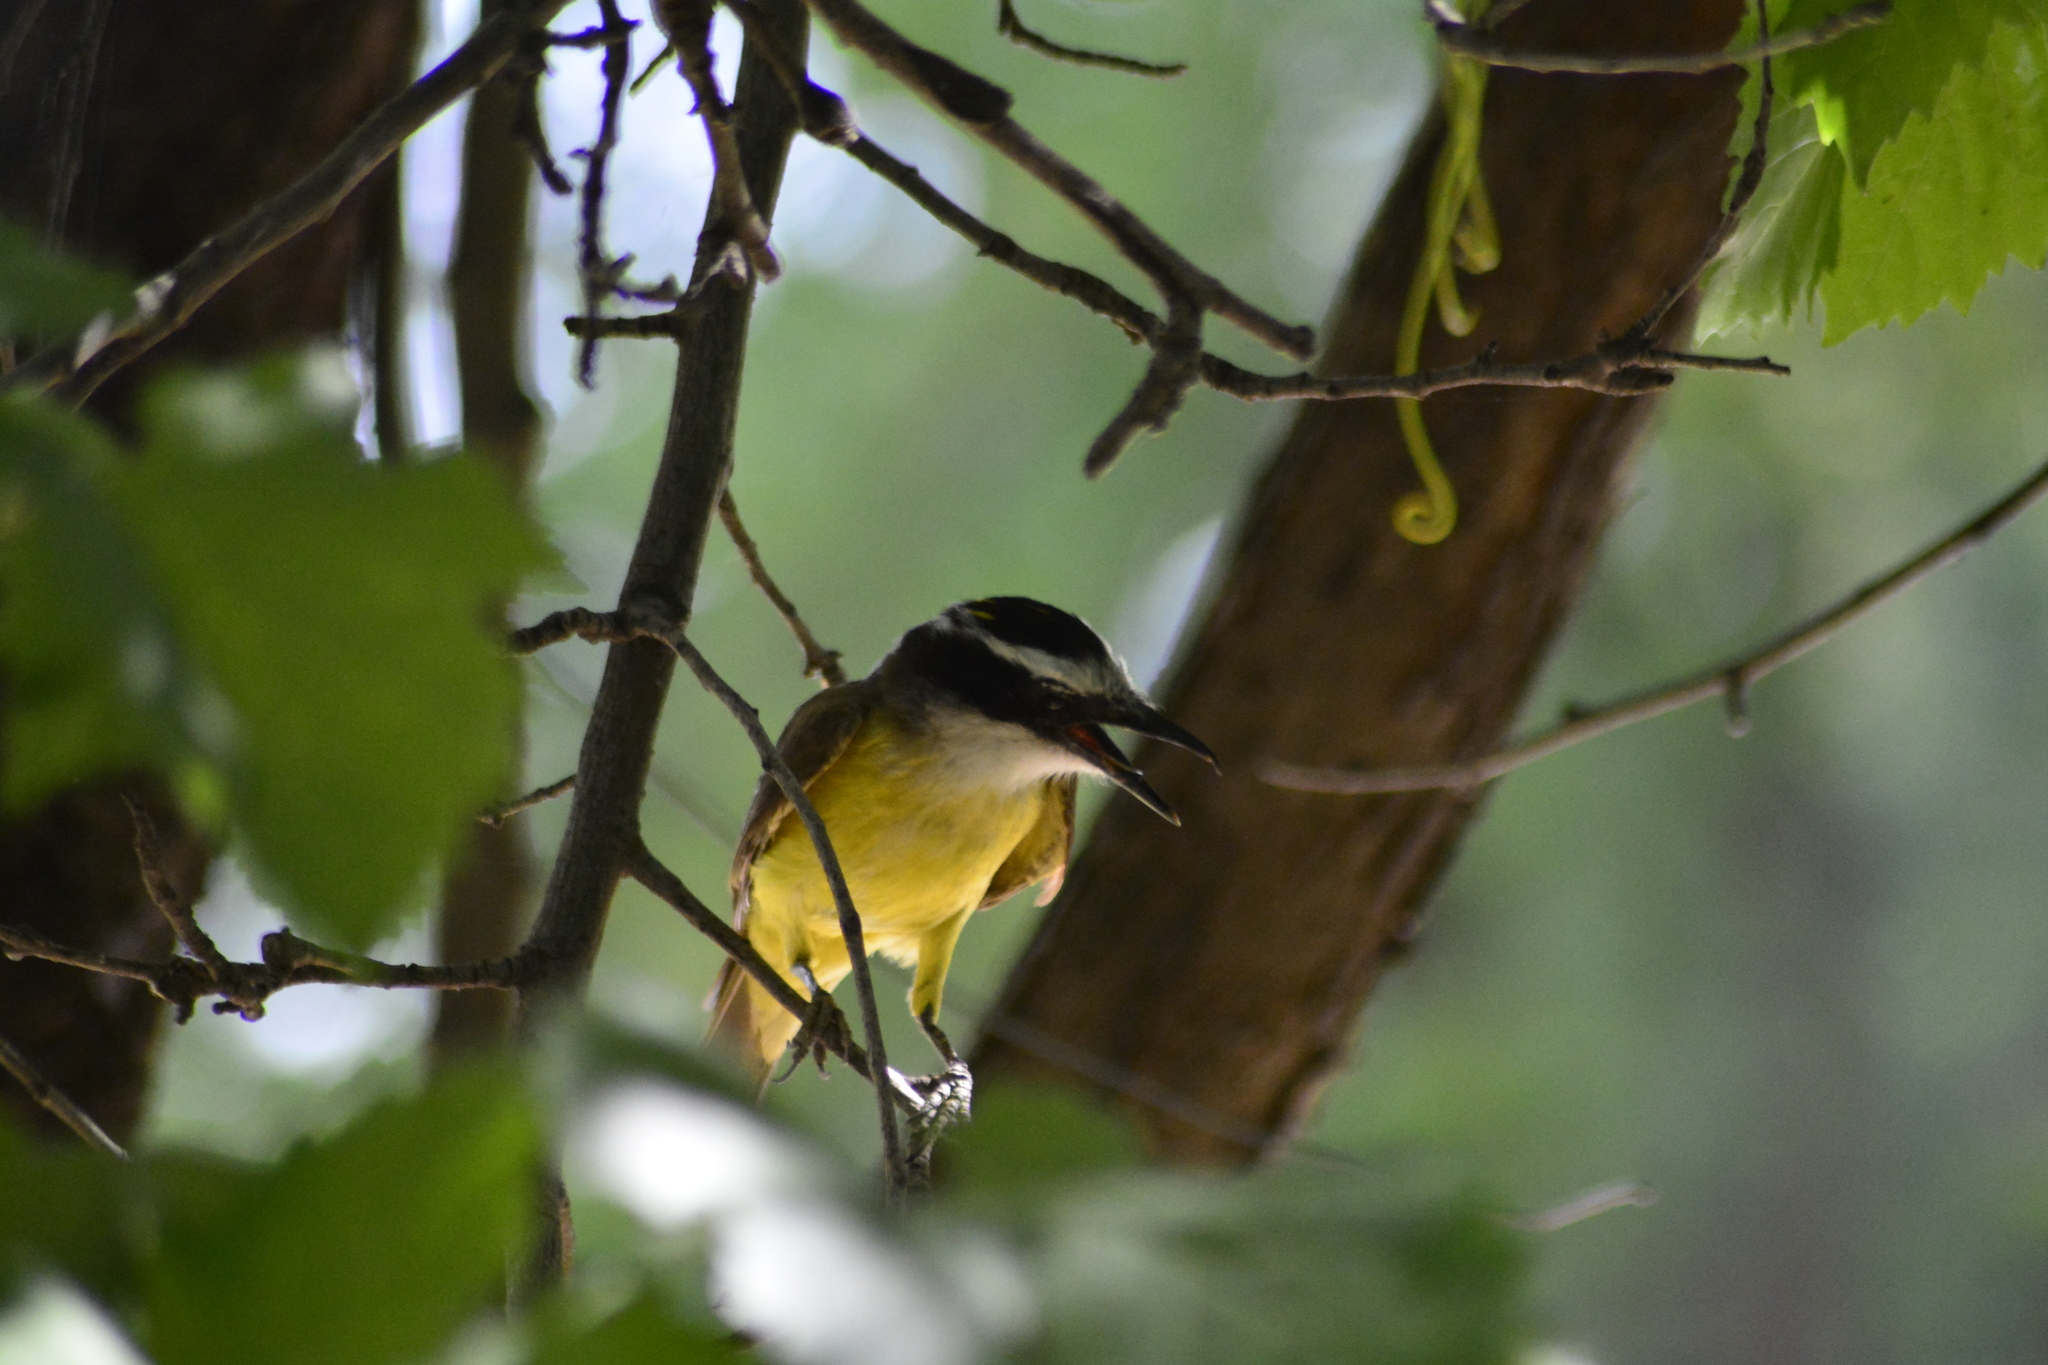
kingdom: Animalia
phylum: Chordata
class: Aves
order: Passeriformes
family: Tyrannidae
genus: Pitangus
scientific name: Pitangus sulphuratus
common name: Great kiskadee
